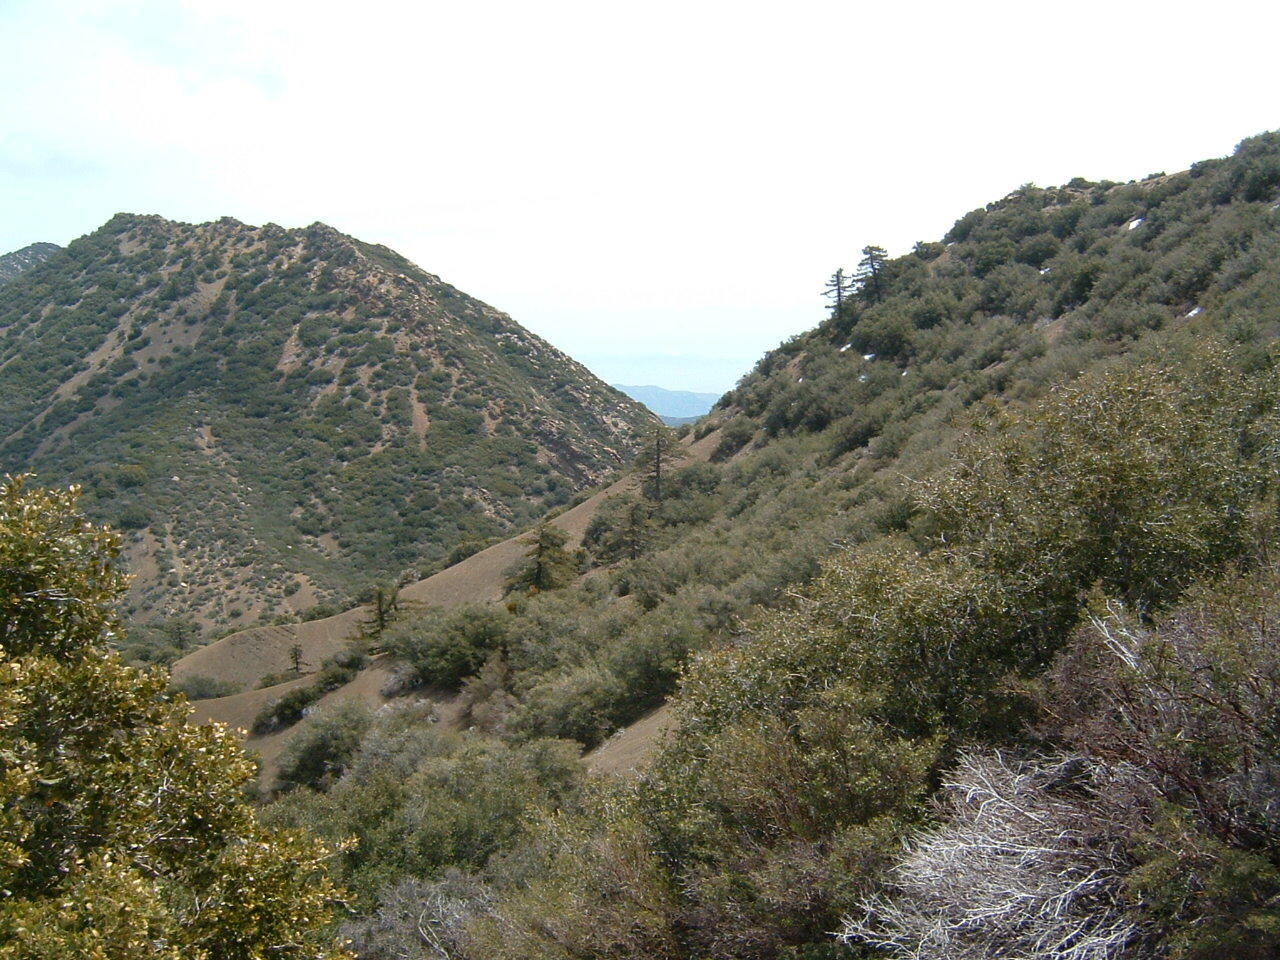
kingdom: Plantae
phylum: Tracheophyta
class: Pinopsida
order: Pinales
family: Pinaceae
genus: Pseudotsuga
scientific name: Pseudotsuga macrocarpa
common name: Big-cone douglas-fir
